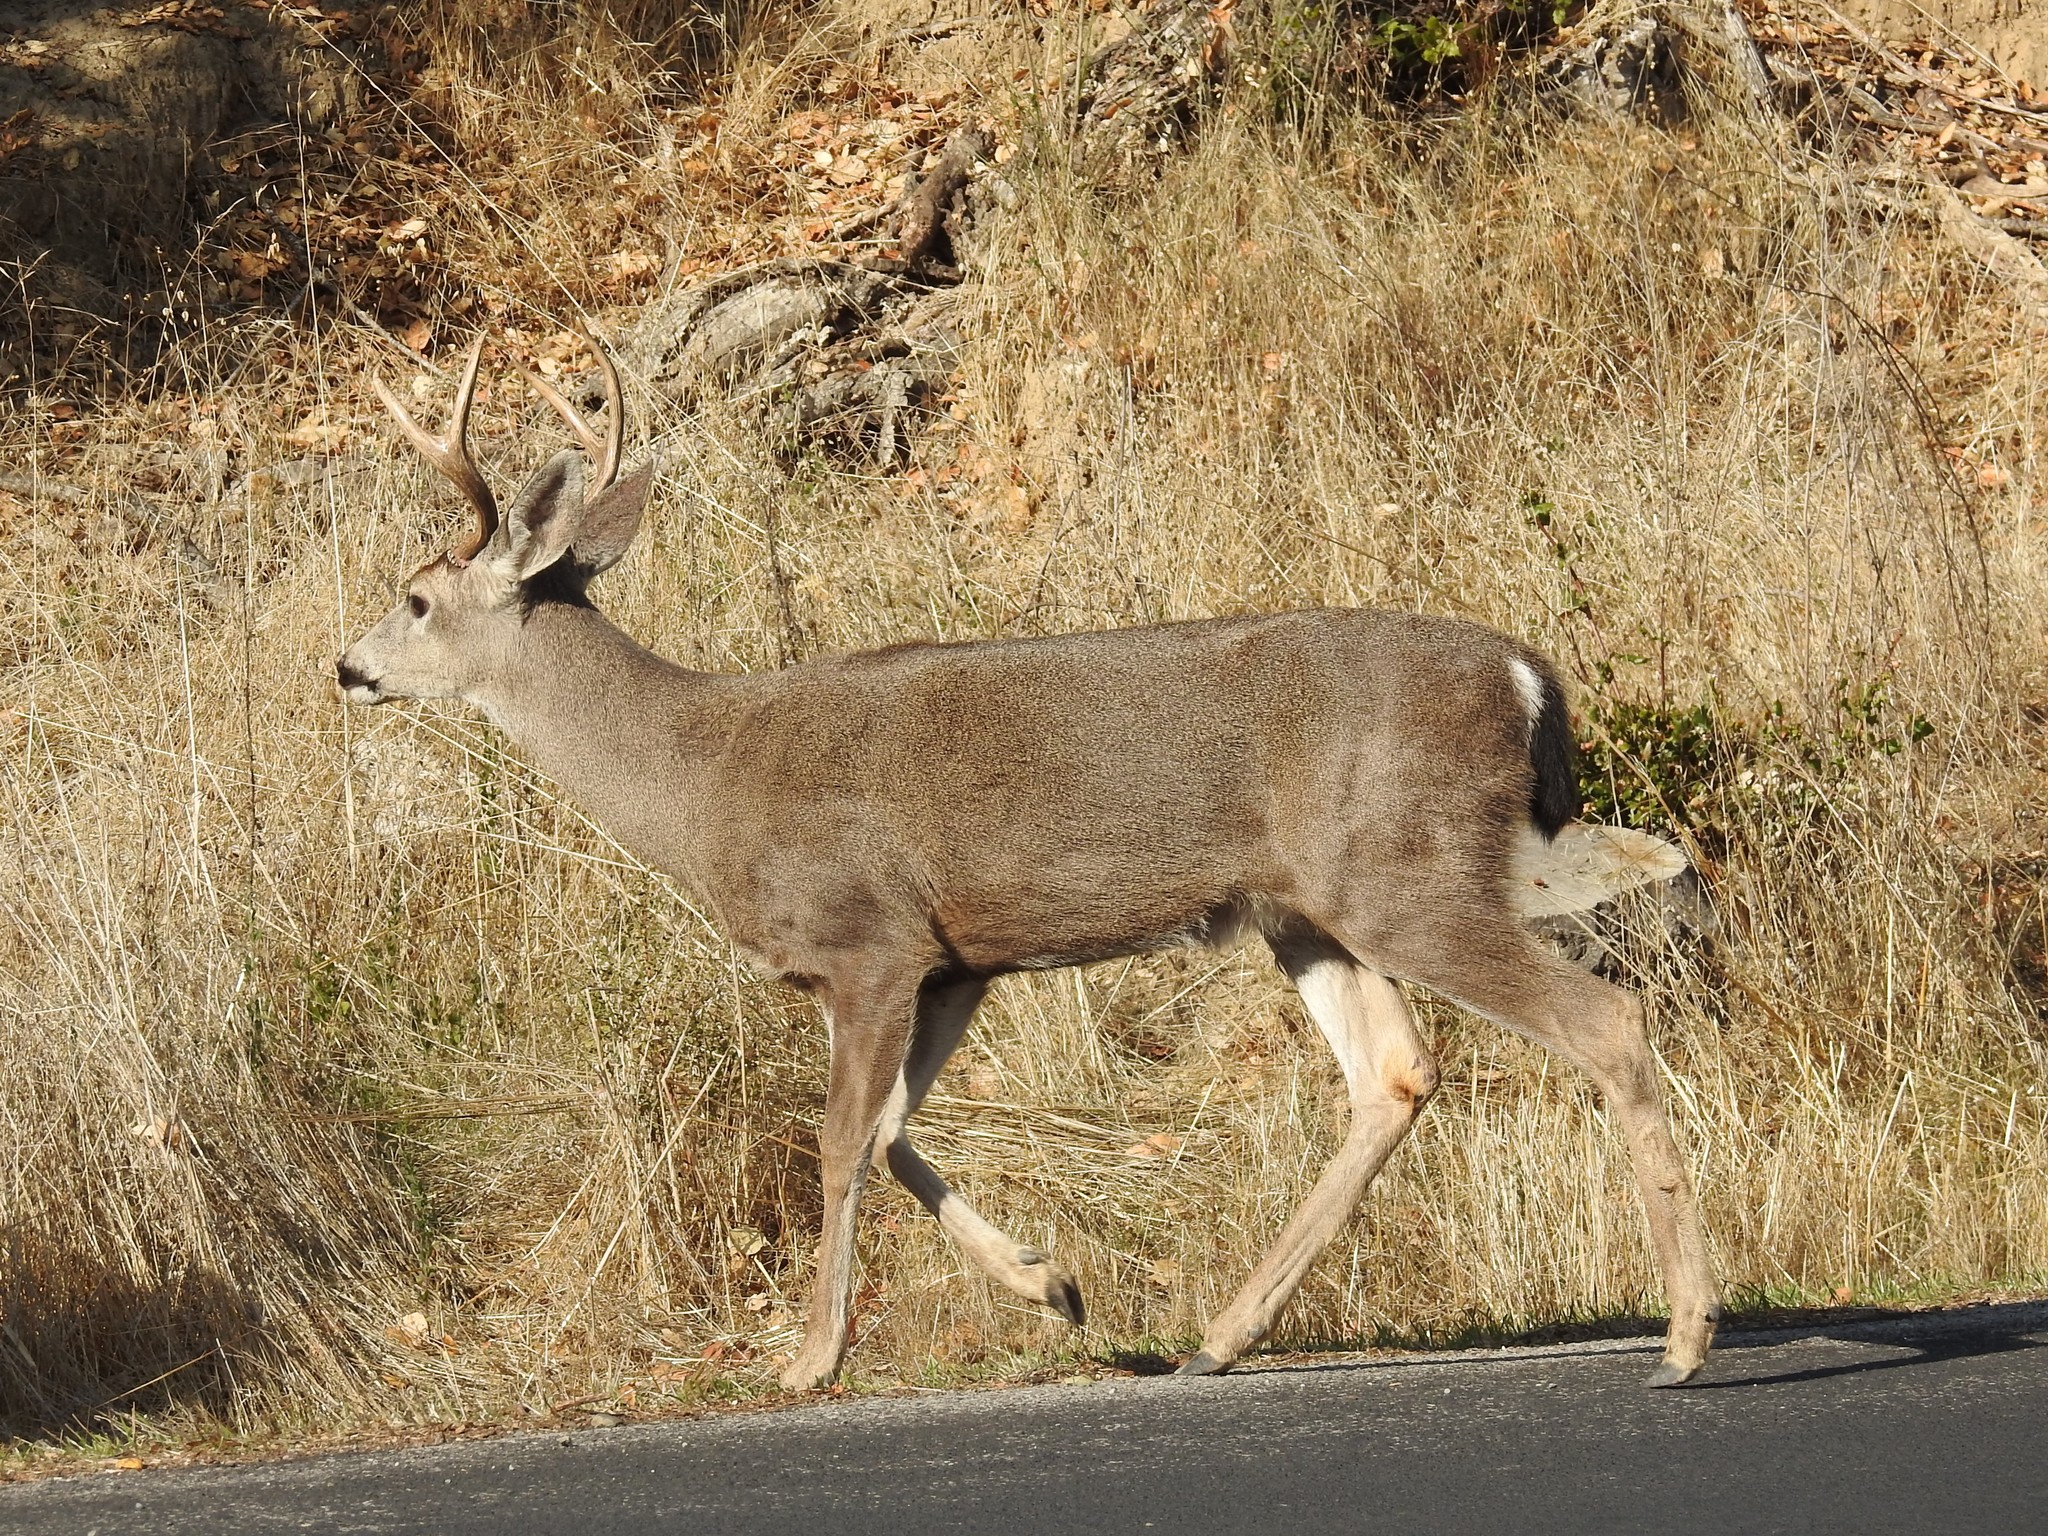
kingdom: Animalia
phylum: Chordata
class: Mammalia
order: Artiodactyla
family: Cervidae
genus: Odocoileus
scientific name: Odocoileus hemionus
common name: Mule deer
